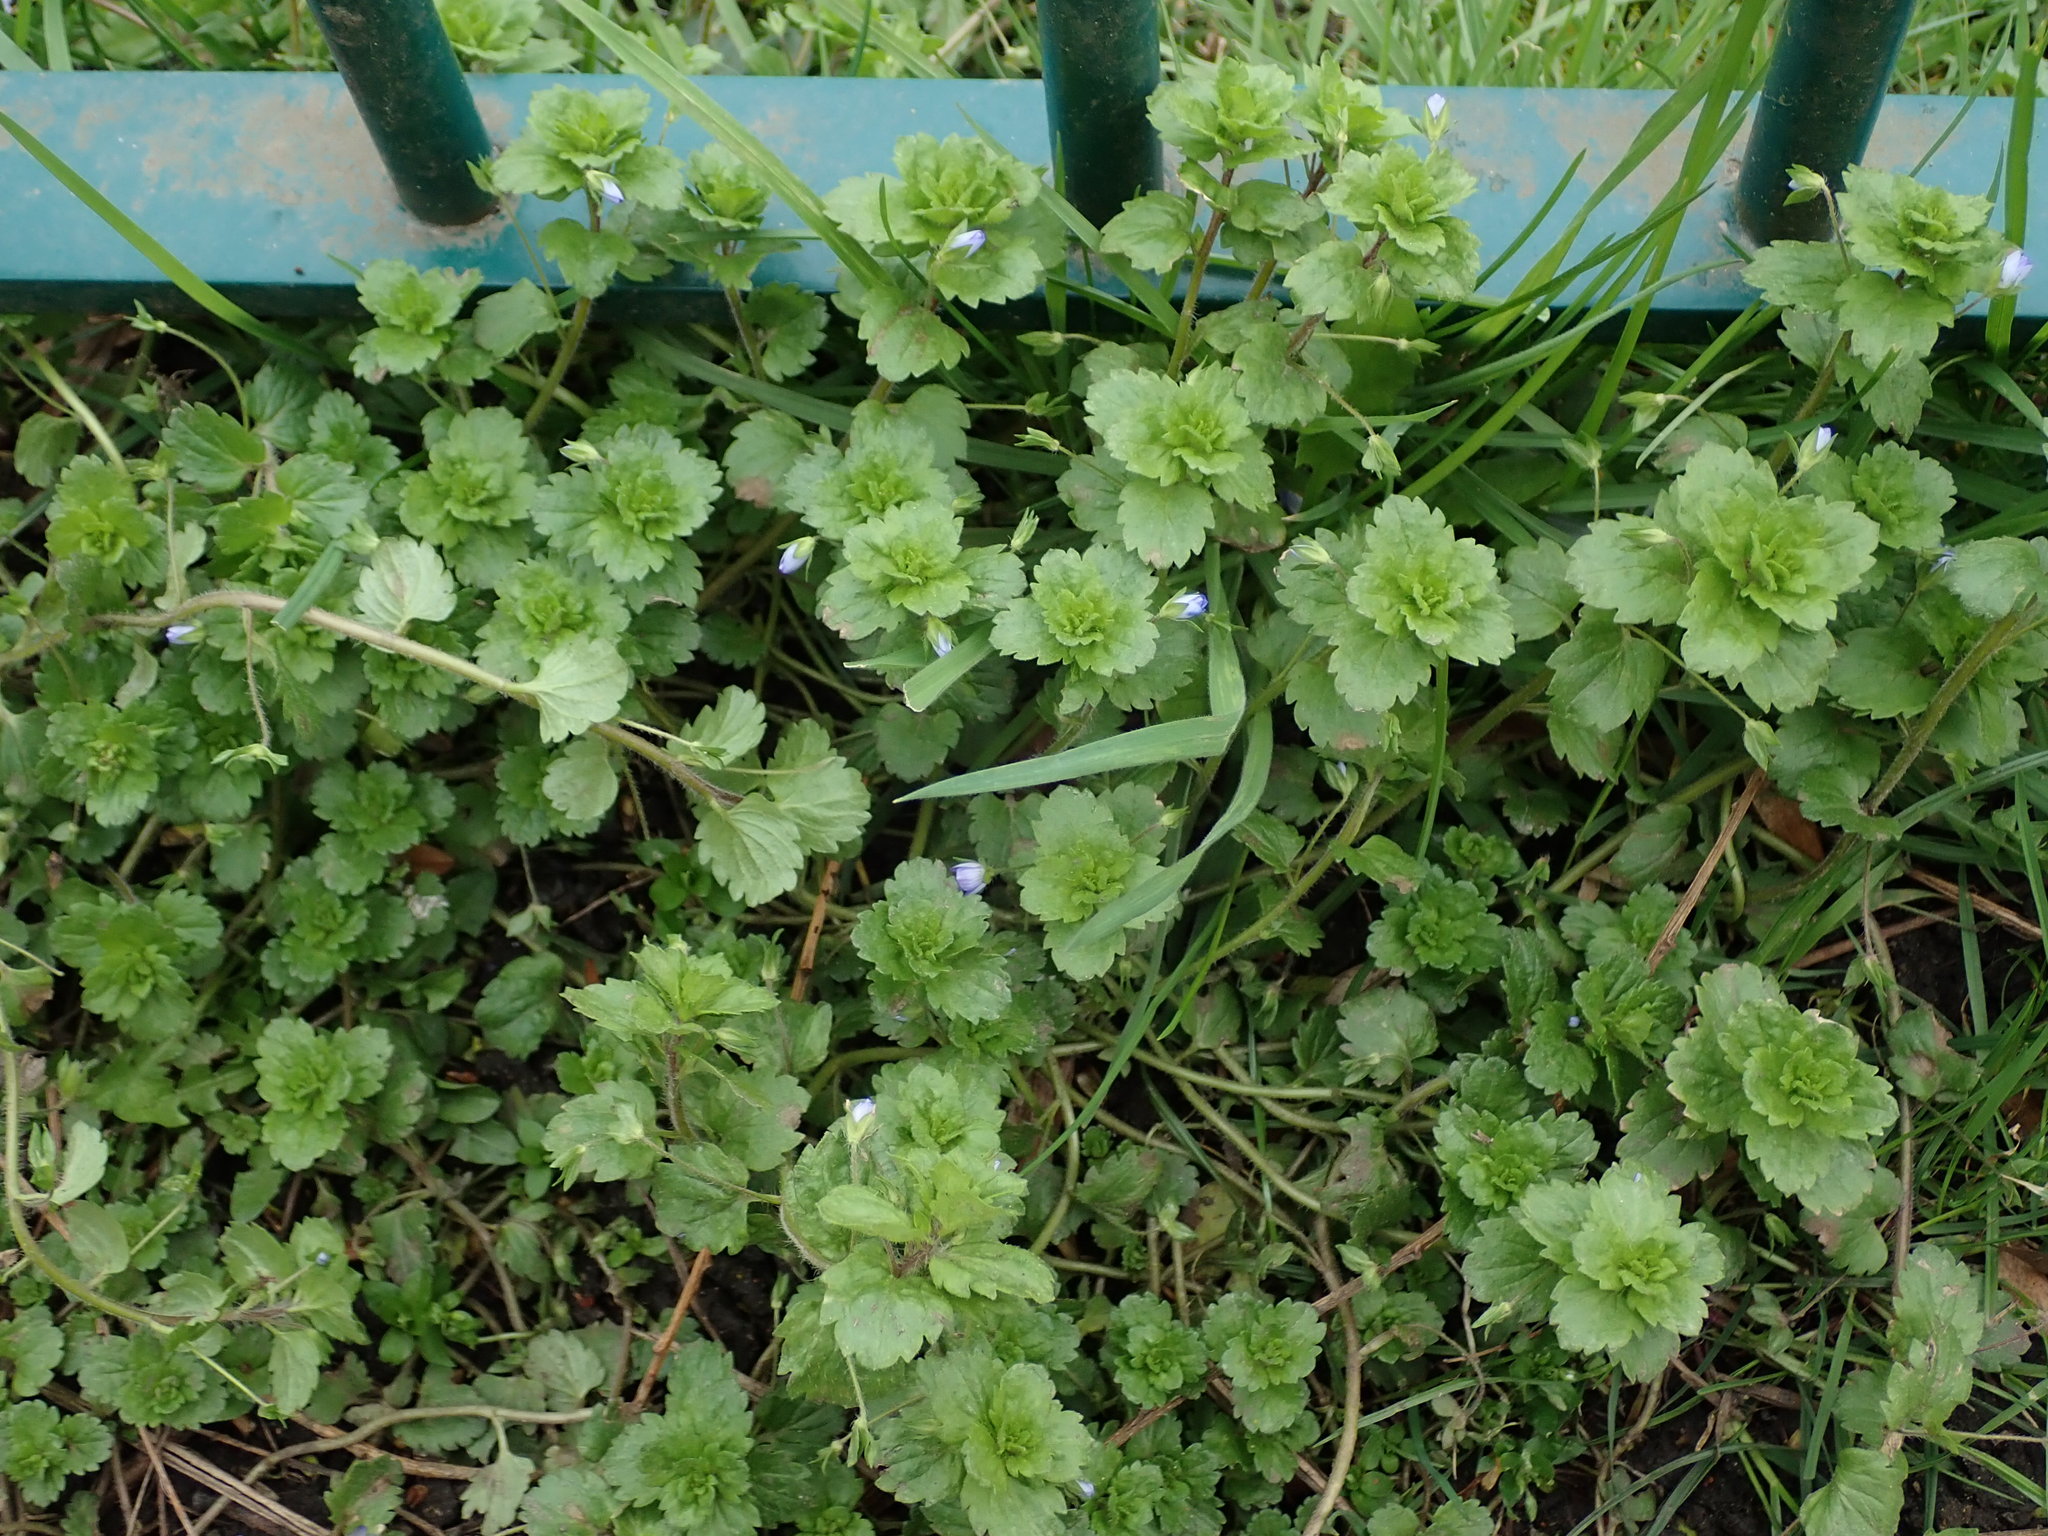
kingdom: Plantae
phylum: Tracheophyta
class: Magnoliopsida
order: Lamiales
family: Plantaginaceae
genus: Veronica
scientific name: Veronica persica
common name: Common field-speedwell
